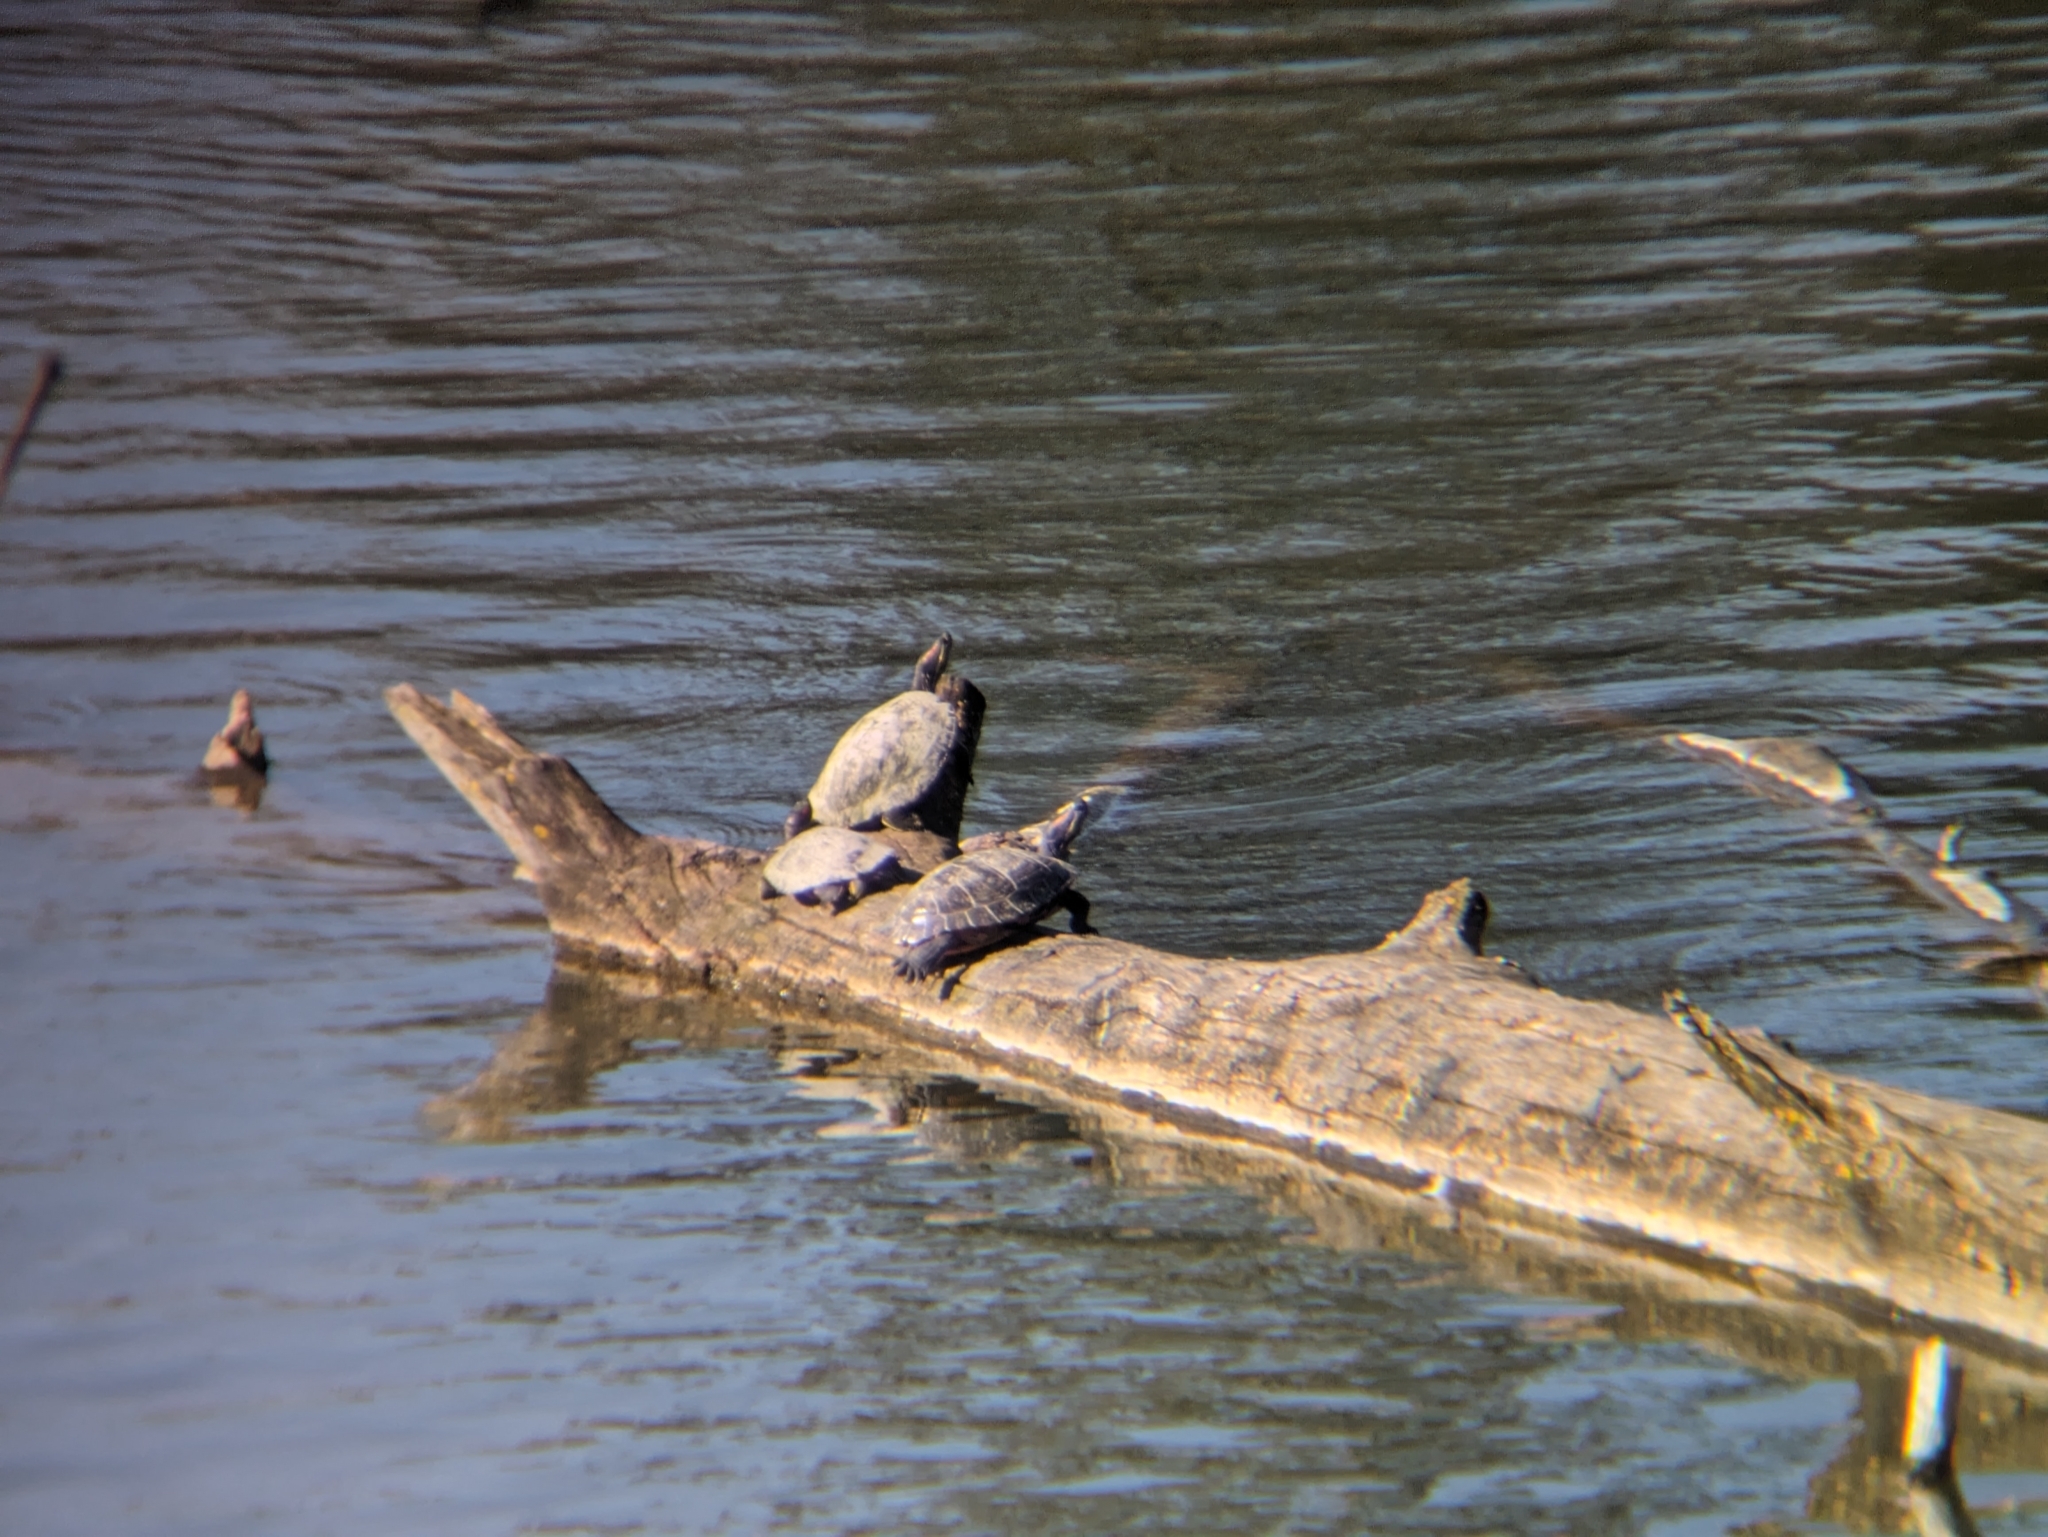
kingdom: Animalia
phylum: Chordata
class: Testudines
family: Emydidae
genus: Trachemys
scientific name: Trachemys scripta
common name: Slider
